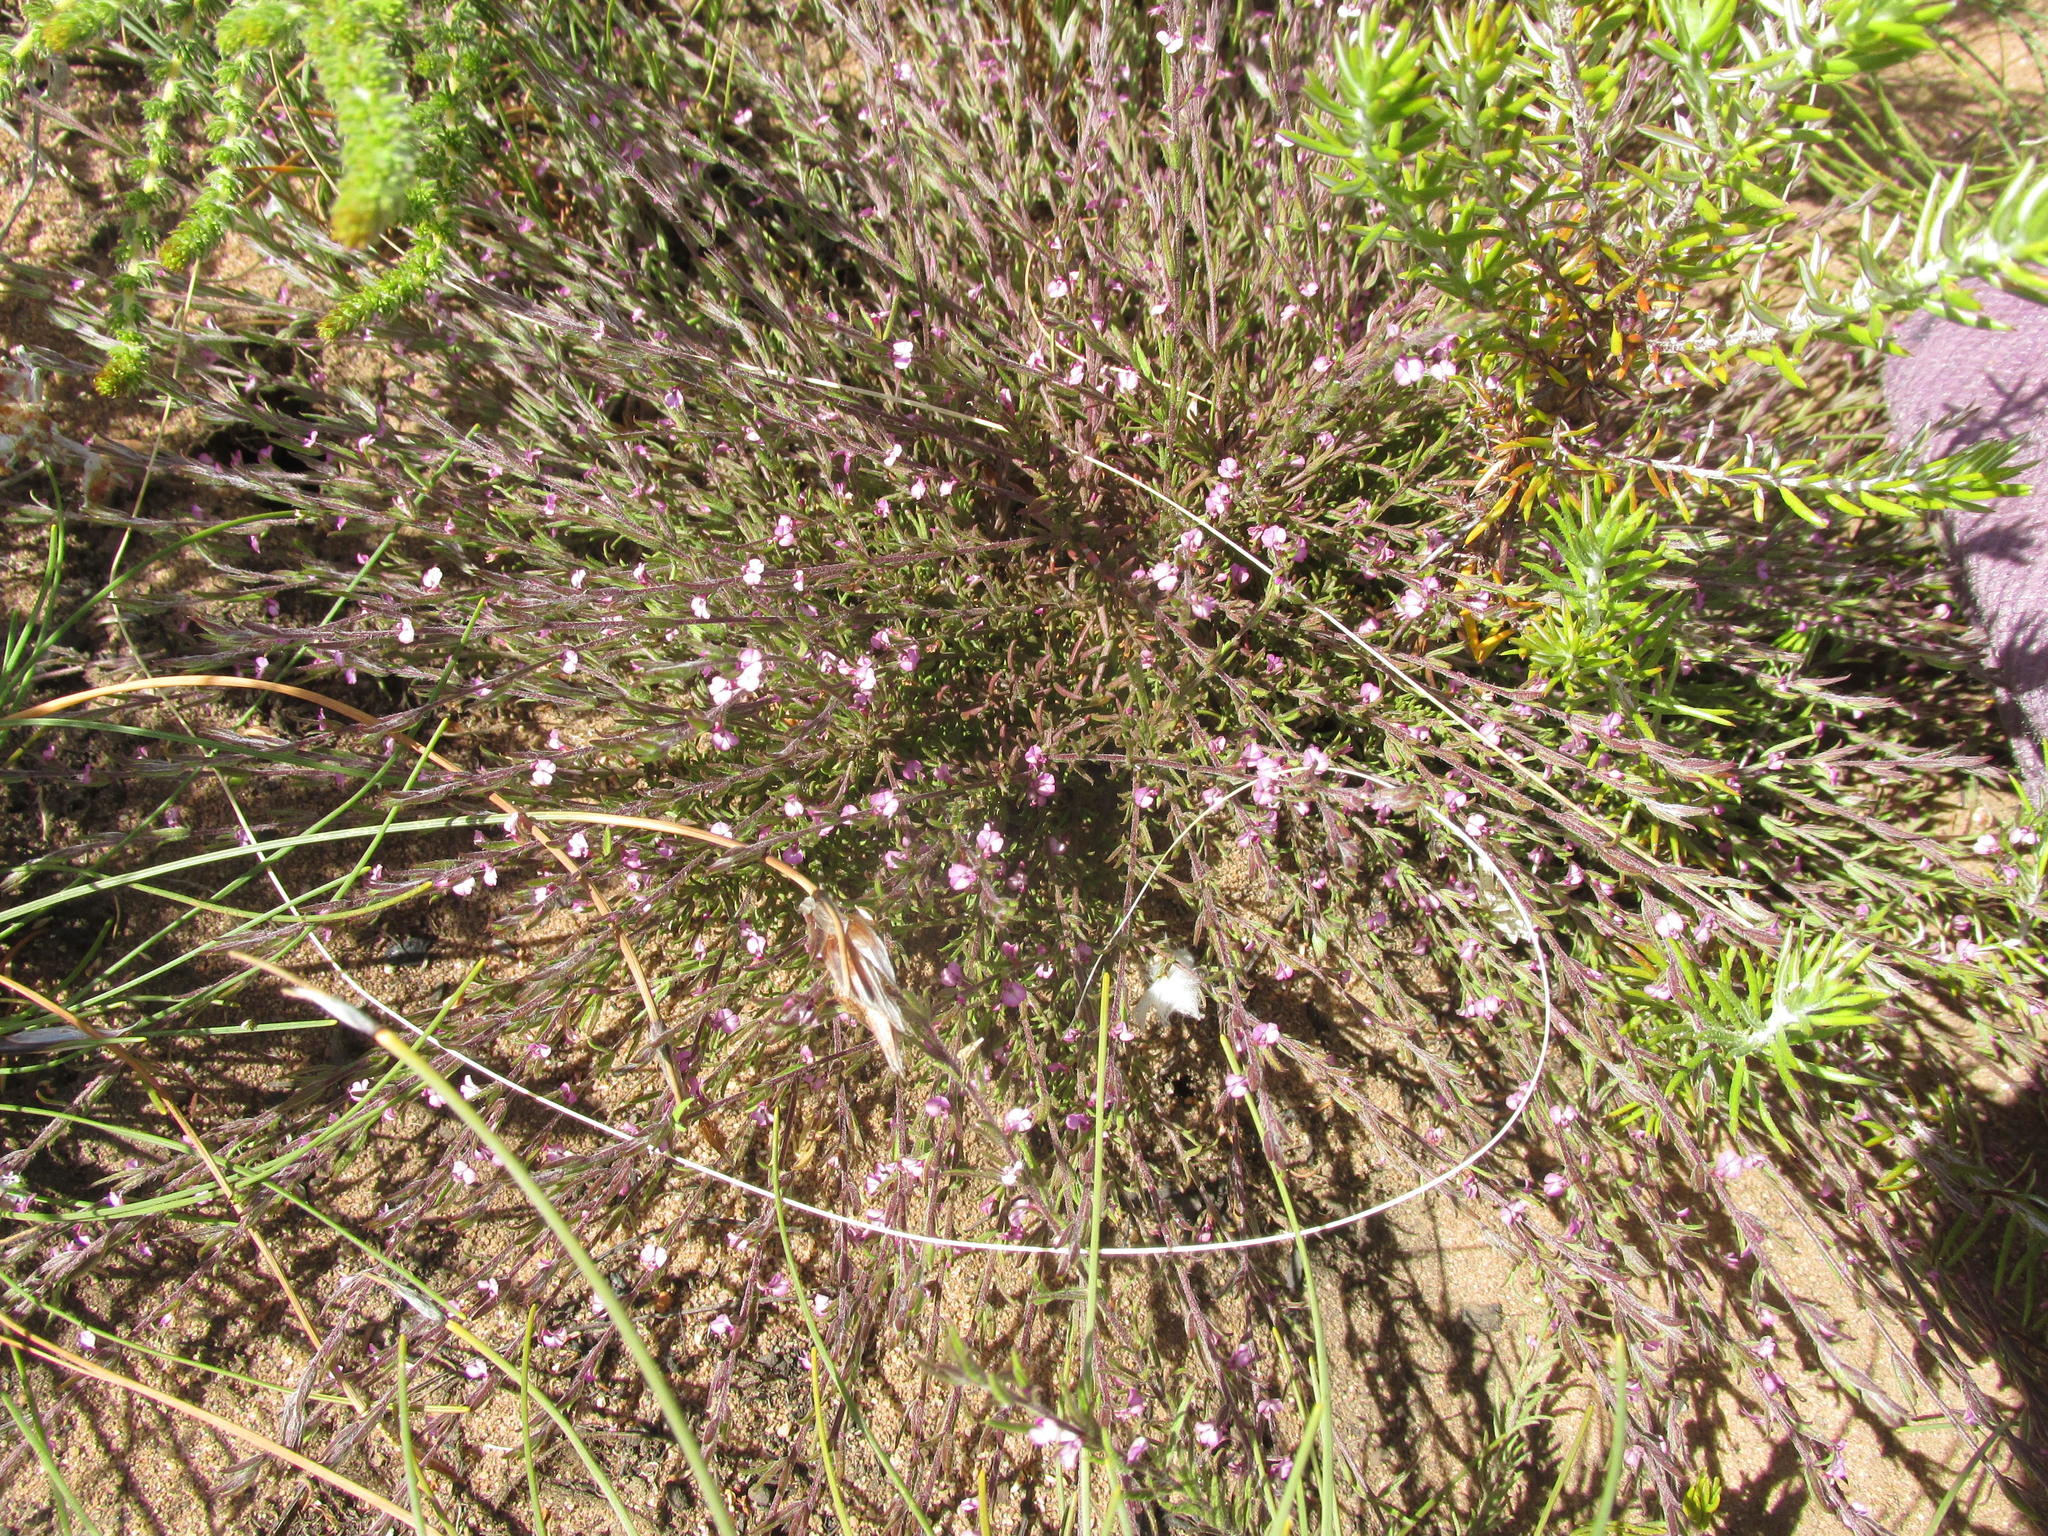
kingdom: Plantae
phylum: Tracheophyta
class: Magnoliopsida
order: Fabales
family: Polygalaceae
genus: Muraltia
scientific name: Muraltia stipulacea
